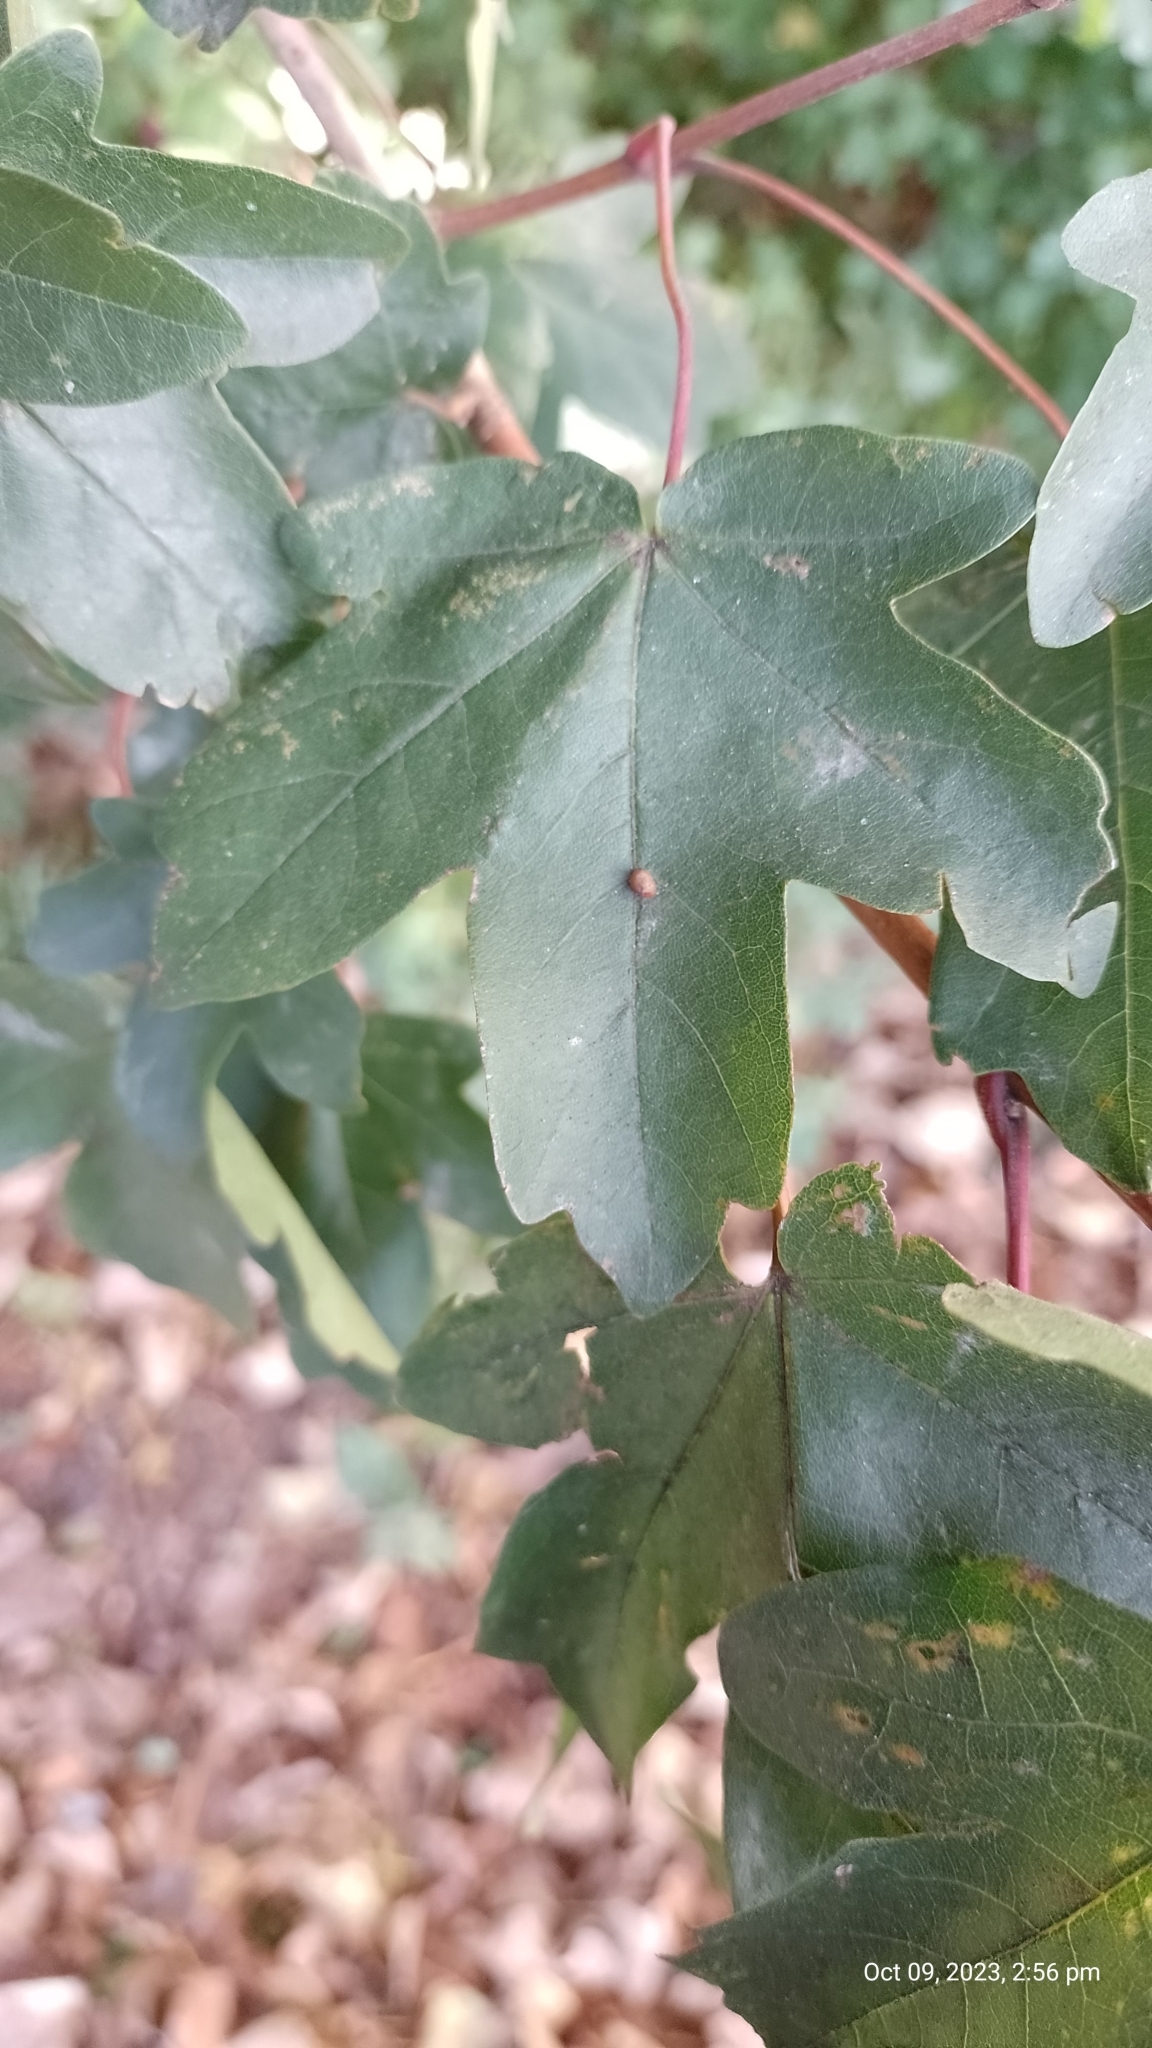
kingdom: Animalia
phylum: Arthropoda
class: Arachnida
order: Trombidiformes
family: Eriophyidae
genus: Aceria
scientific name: Aceria macrochelus
